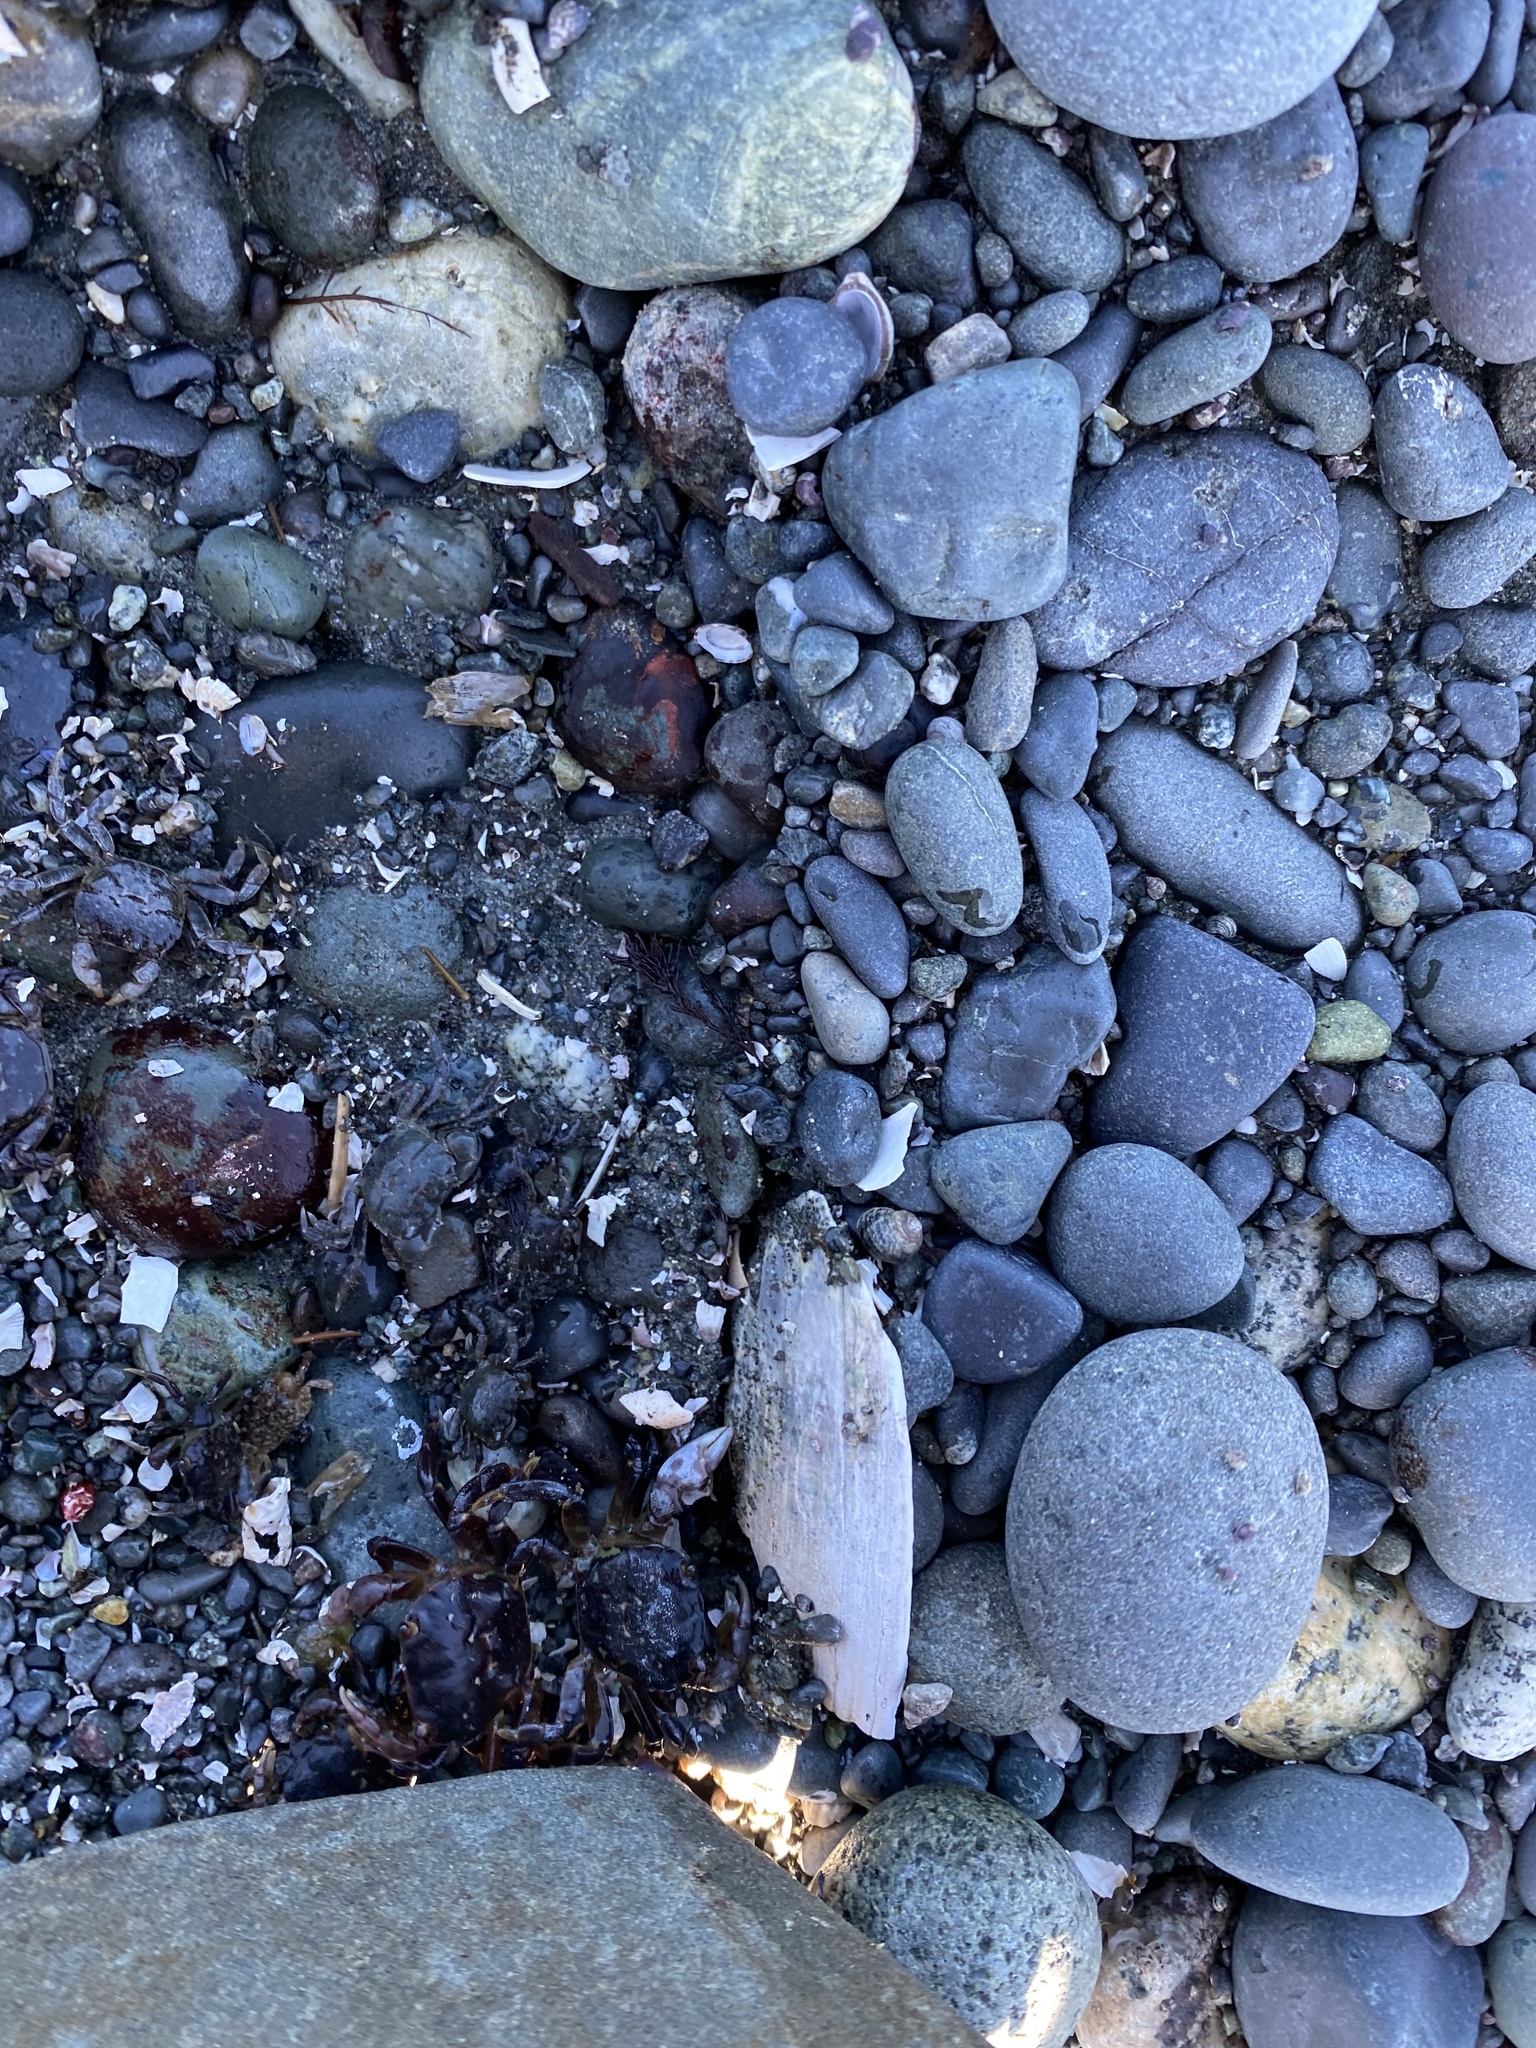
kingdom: Animalia
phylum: Arthropoda
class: Malacostraca
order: Decapoda
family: Varunidae
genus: Hemigrapsus
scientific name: Hemigrapsus nudus
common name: Purple shore crab
